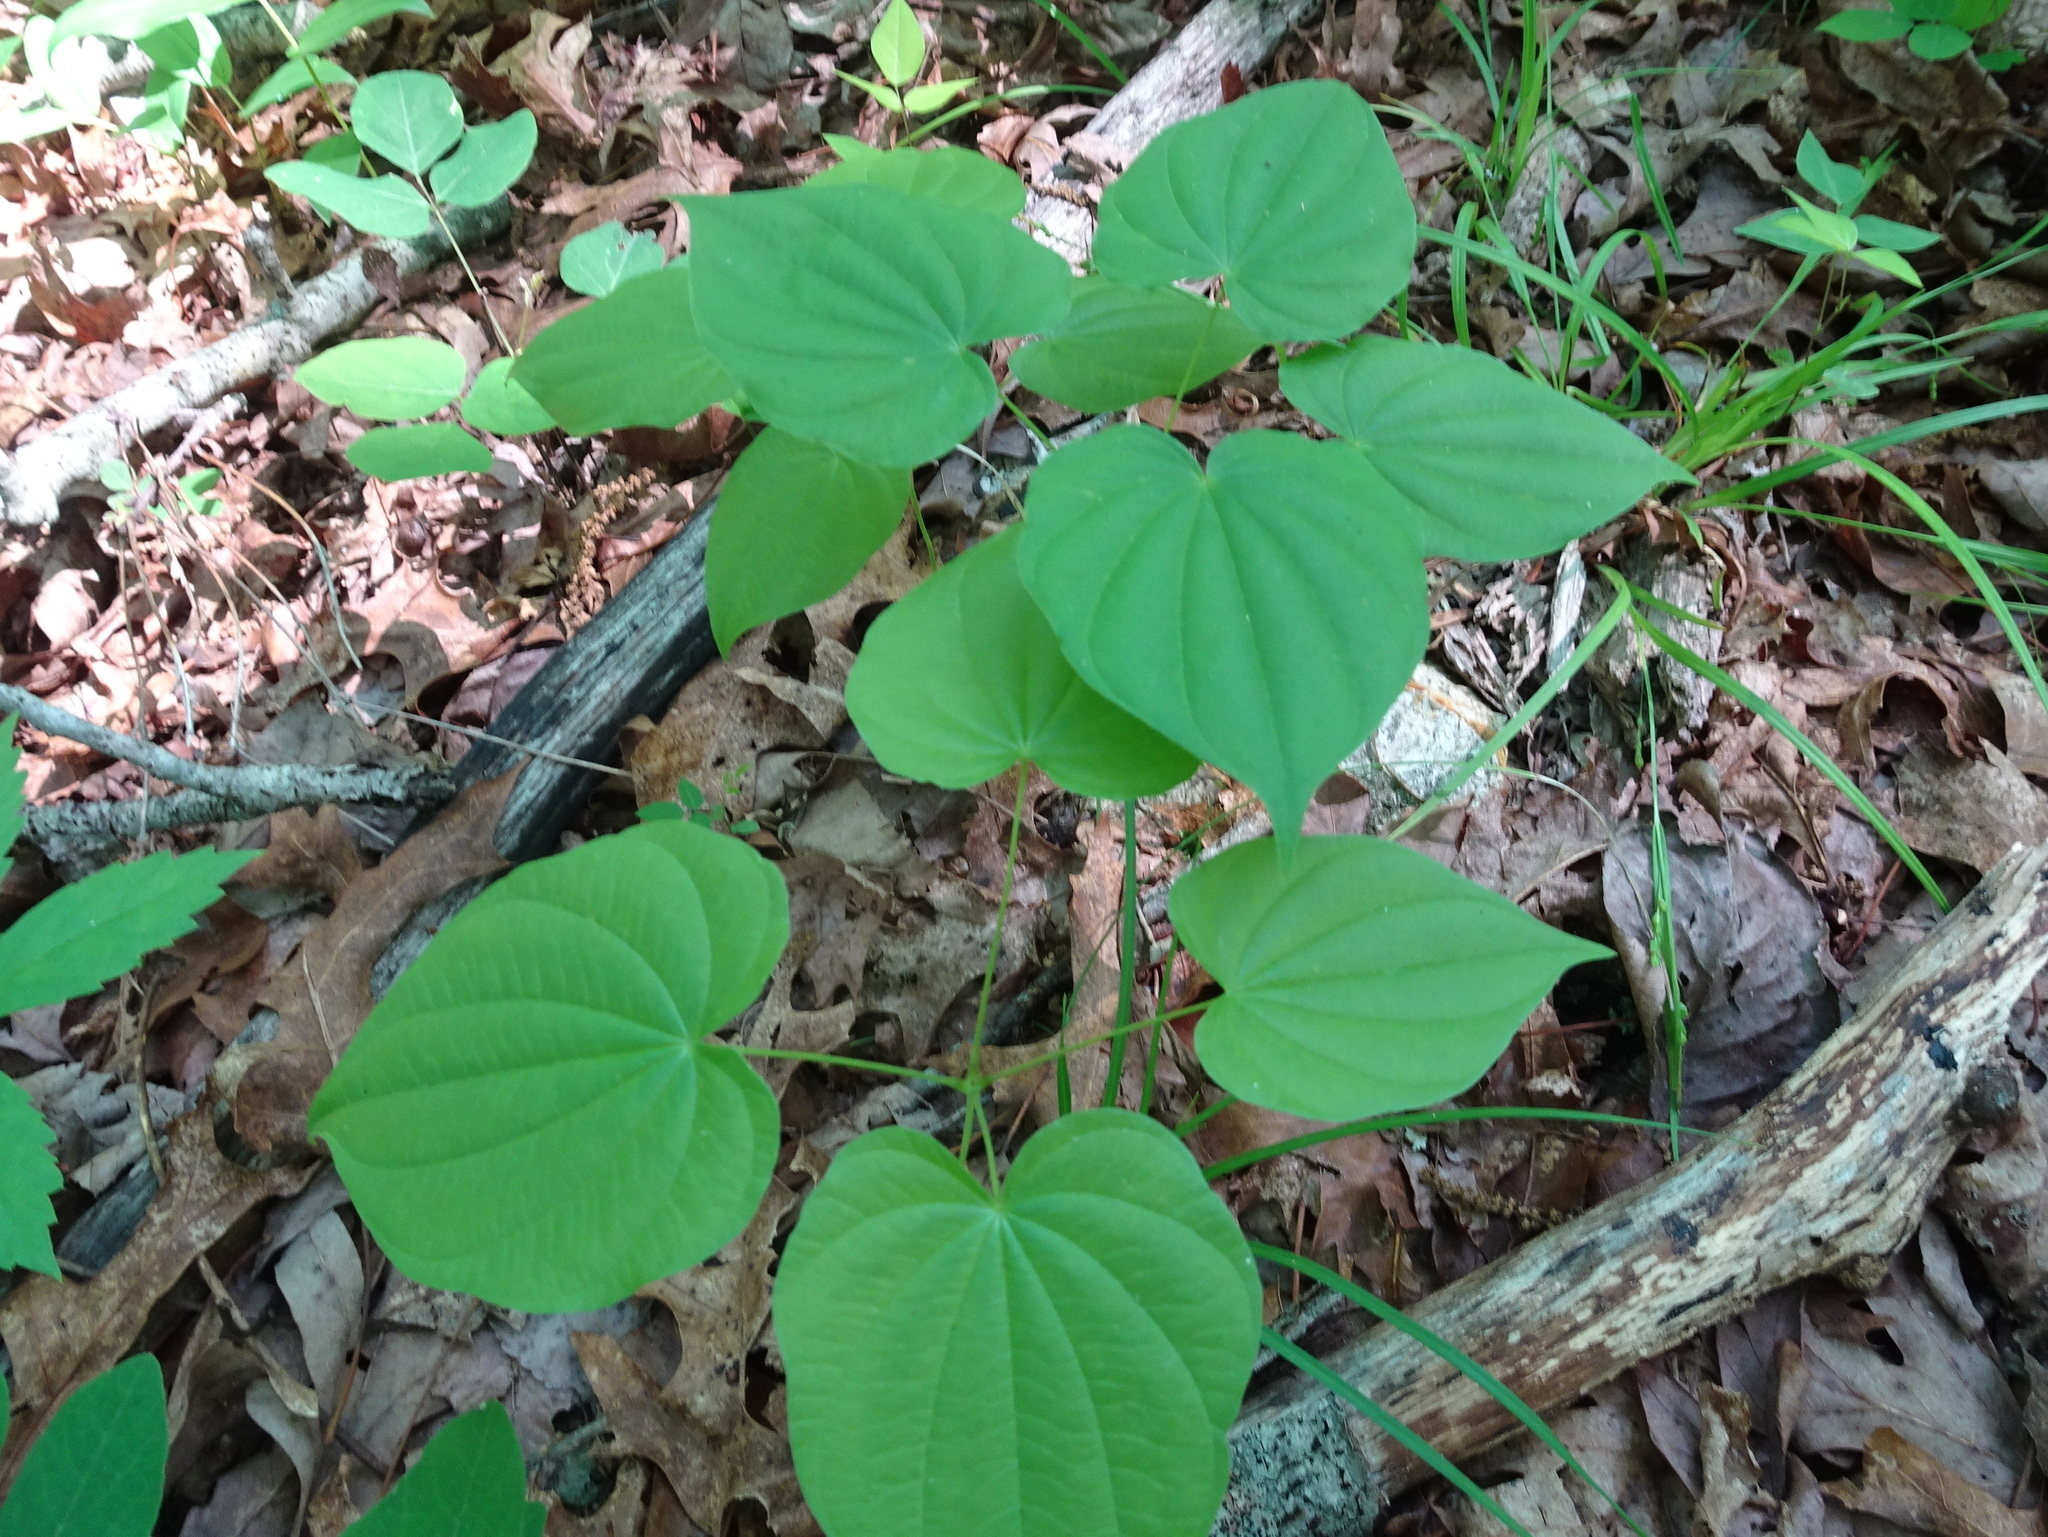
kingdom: Plantae
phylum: Tracheophyta
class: Liliopsida
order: Dioscoreales
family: Dioscoreaceae
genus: Dioscorea
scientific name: Dioscorea villosa
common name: Wild yam
